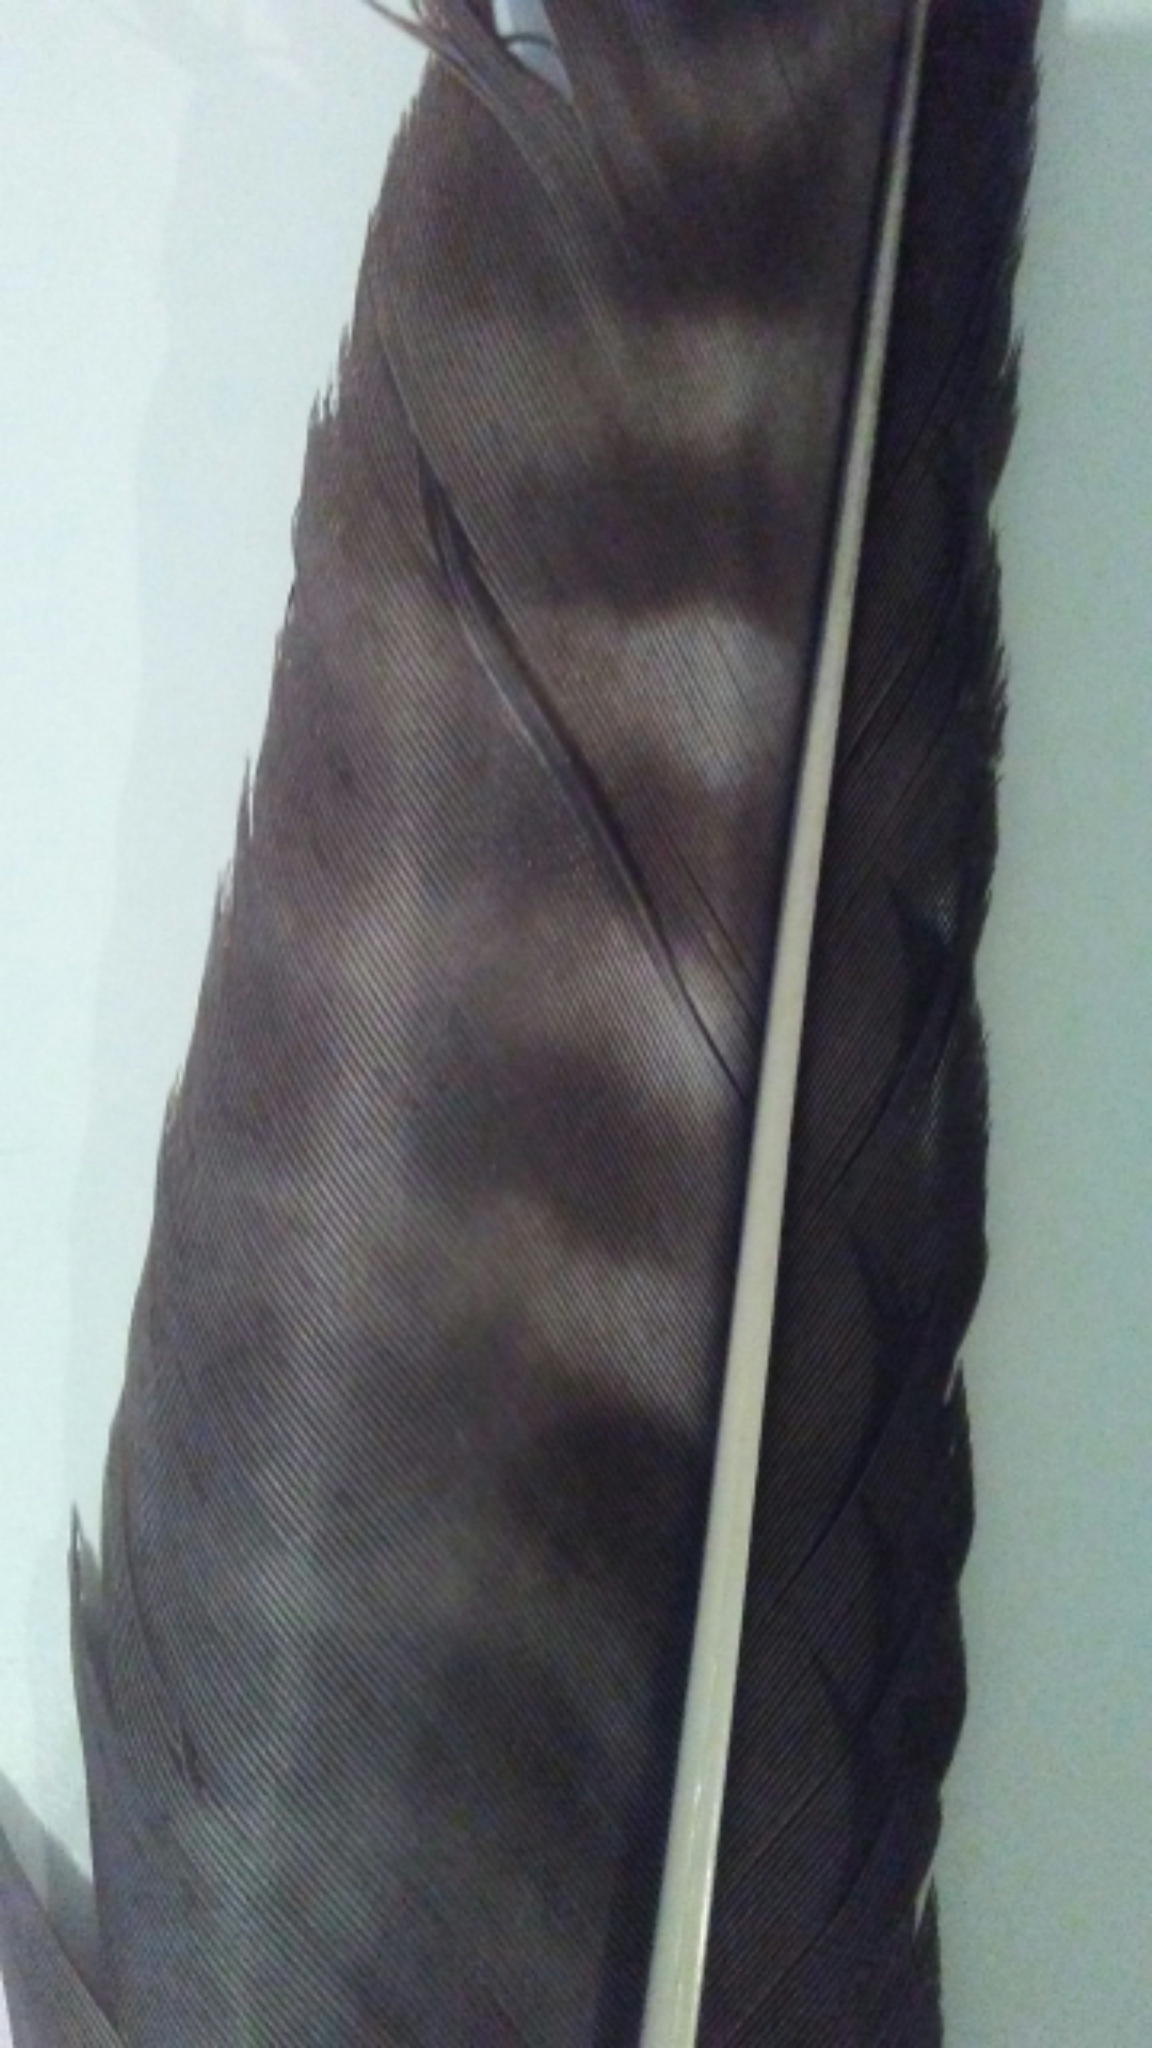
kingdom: Animalia
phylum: Chordata
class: Aves
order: Accipitriformes
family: Accipitridae
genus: Buteo
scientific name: Buteo jamaicensis
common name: Red-tailed hawk
